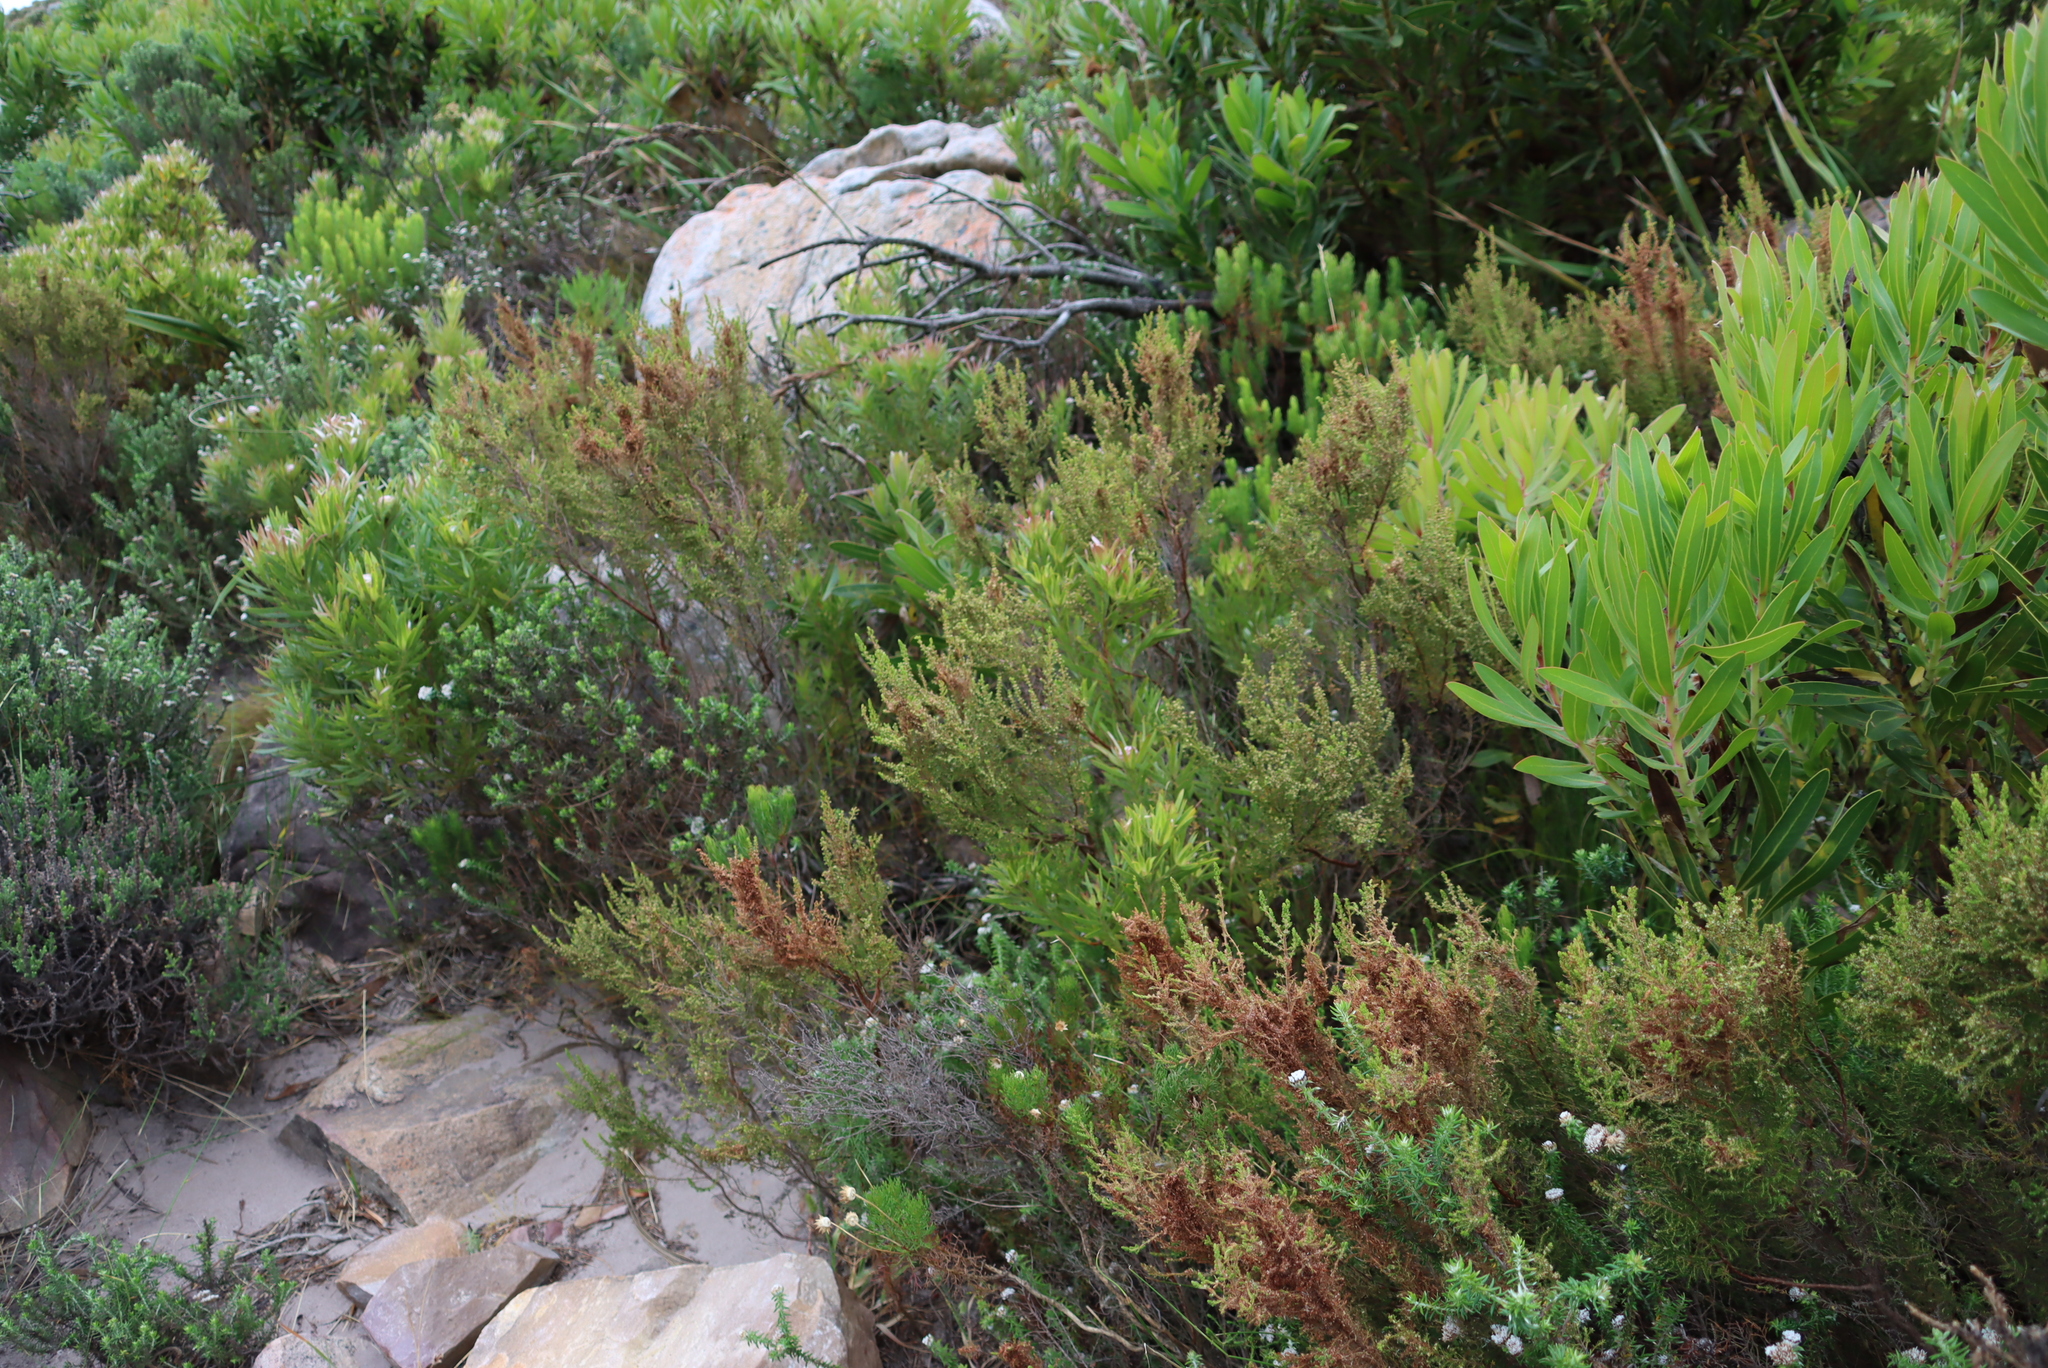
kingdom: Plantae
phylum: Tracheophyta
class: Magnoliopsida
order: Ericales
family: Ericaceae
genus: Erica
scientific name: Erica muscosa
